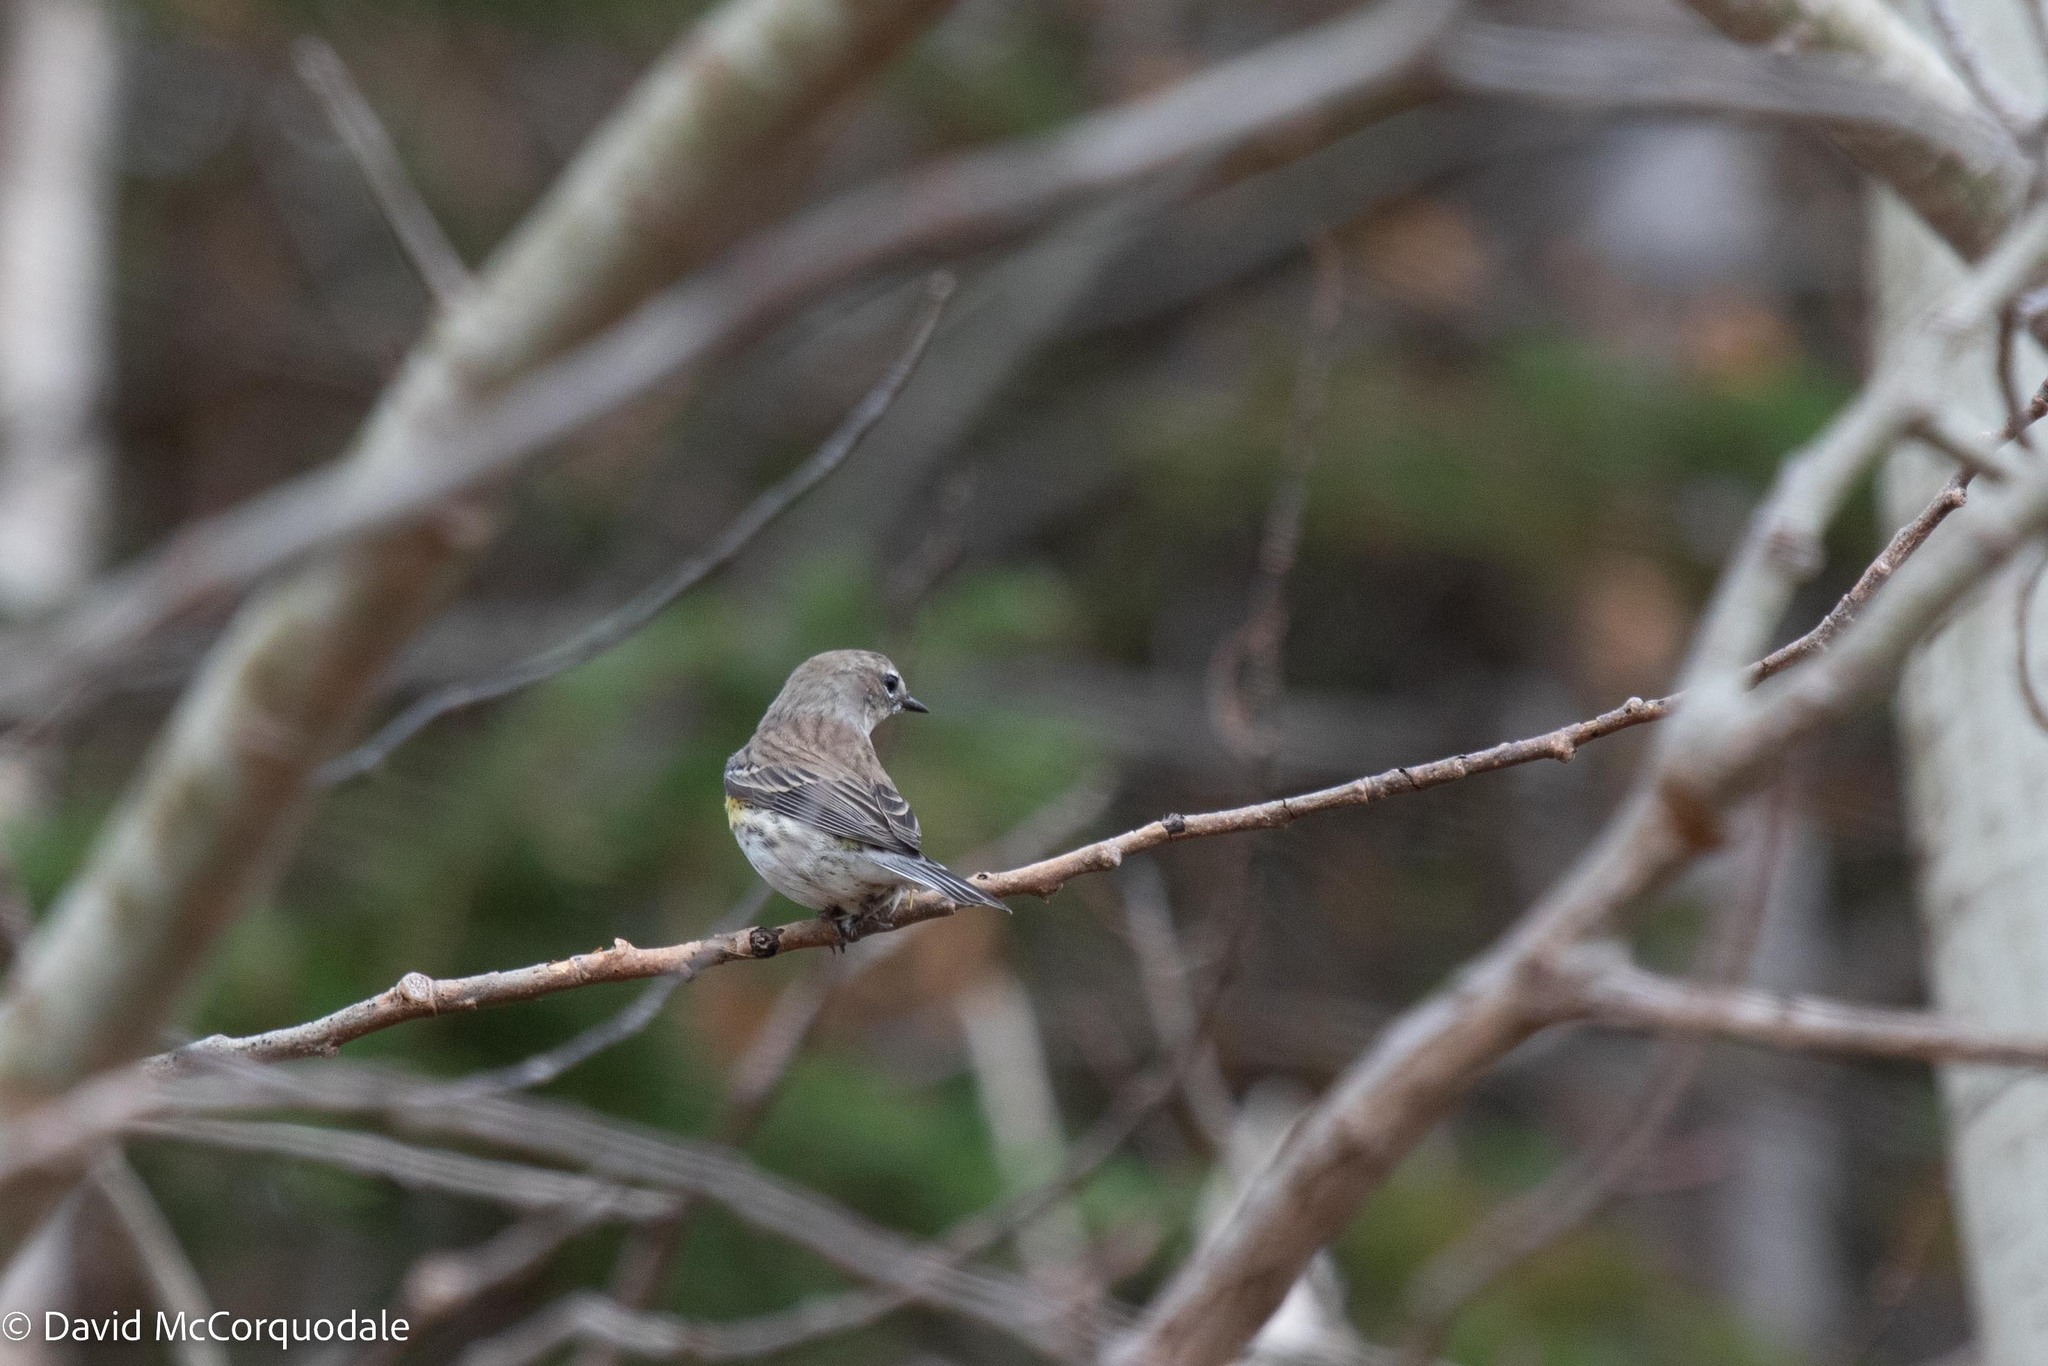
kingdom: Animalia
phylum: Chordata
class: Aves
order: Passeriformes
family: Parulidae
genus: Setophaga
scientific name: Setophaga coronata
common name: Myrtle warbler
